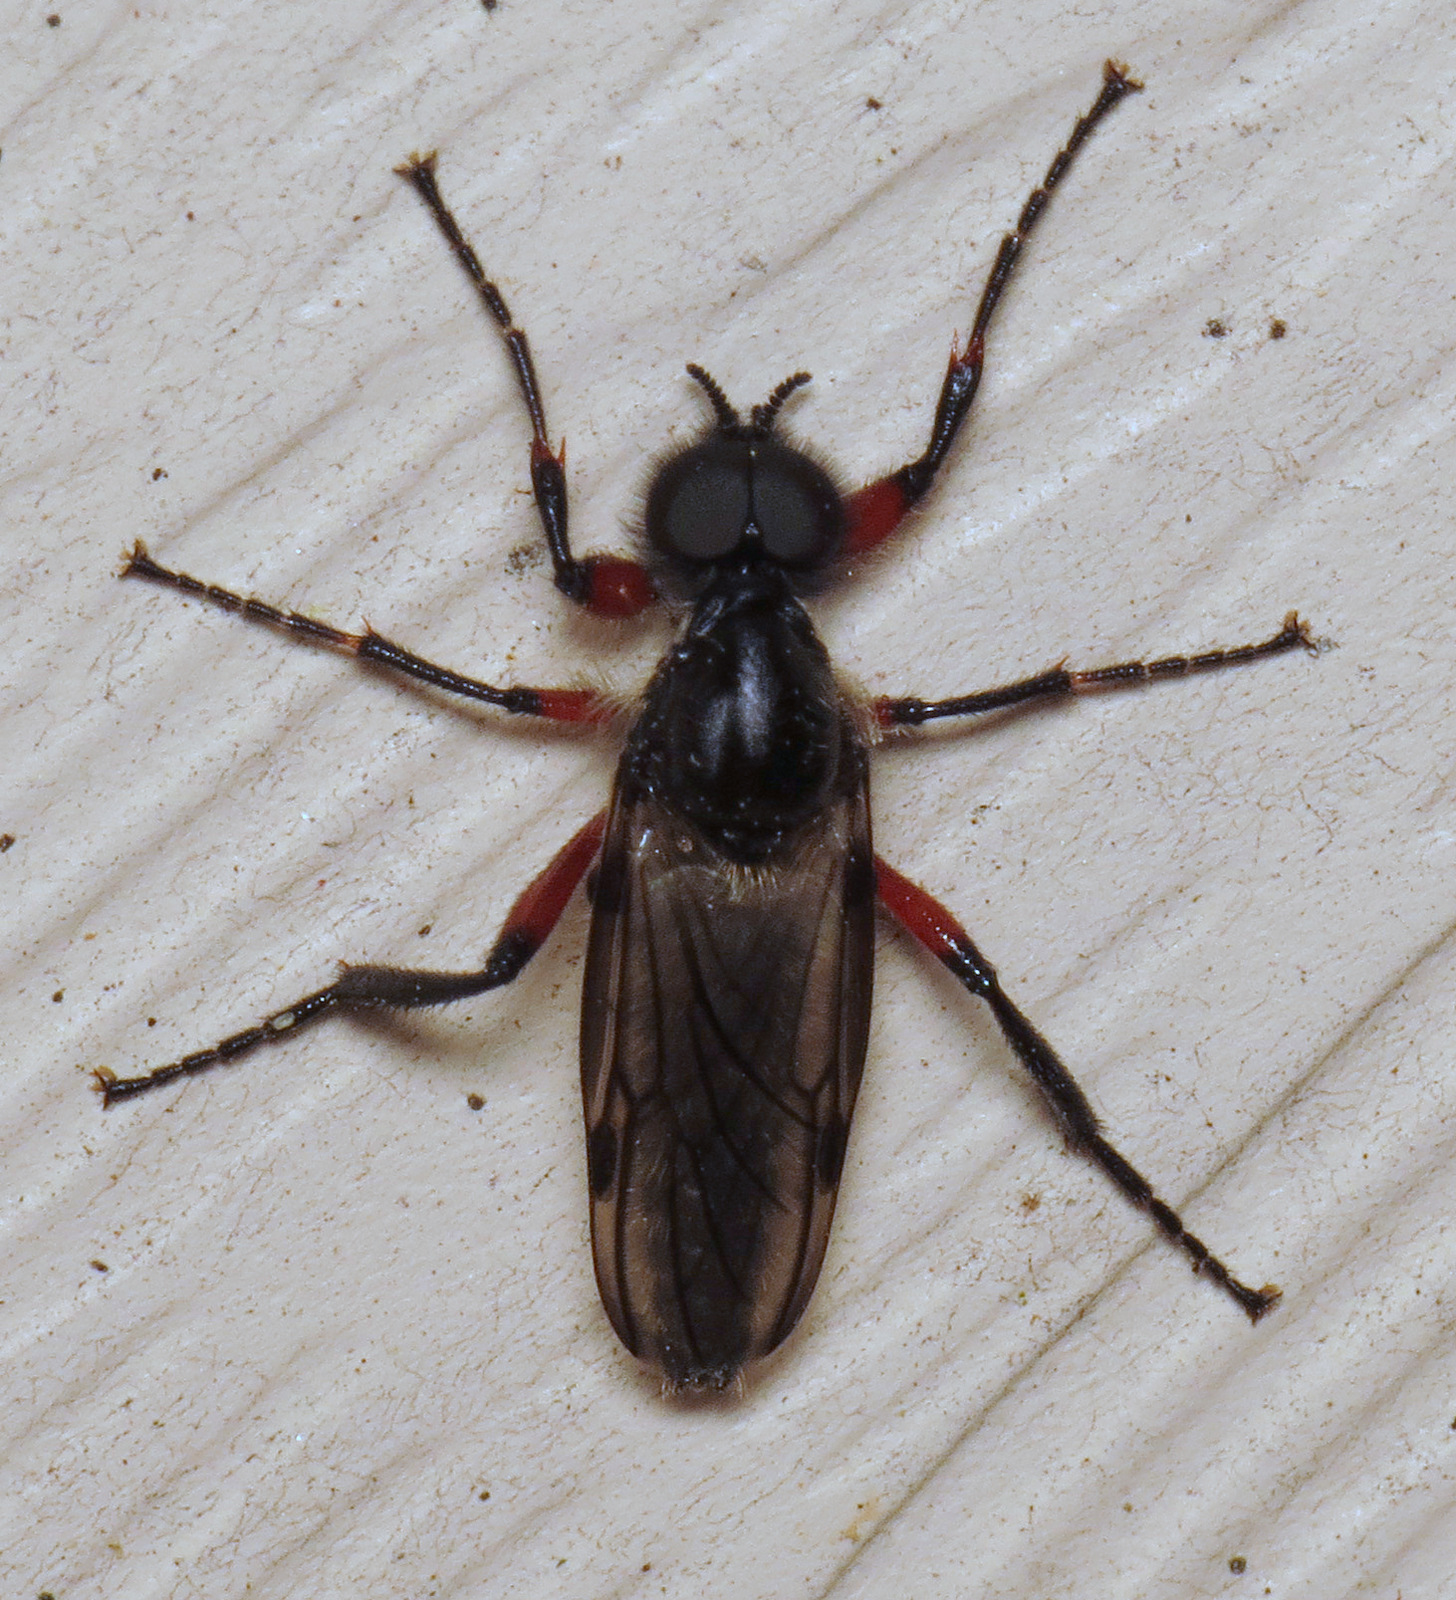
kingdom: Animalia
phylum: Arthropoda
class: Insecta
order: Diptera
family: Bibionidae
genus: Bibio
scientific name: Bibio femoratus
